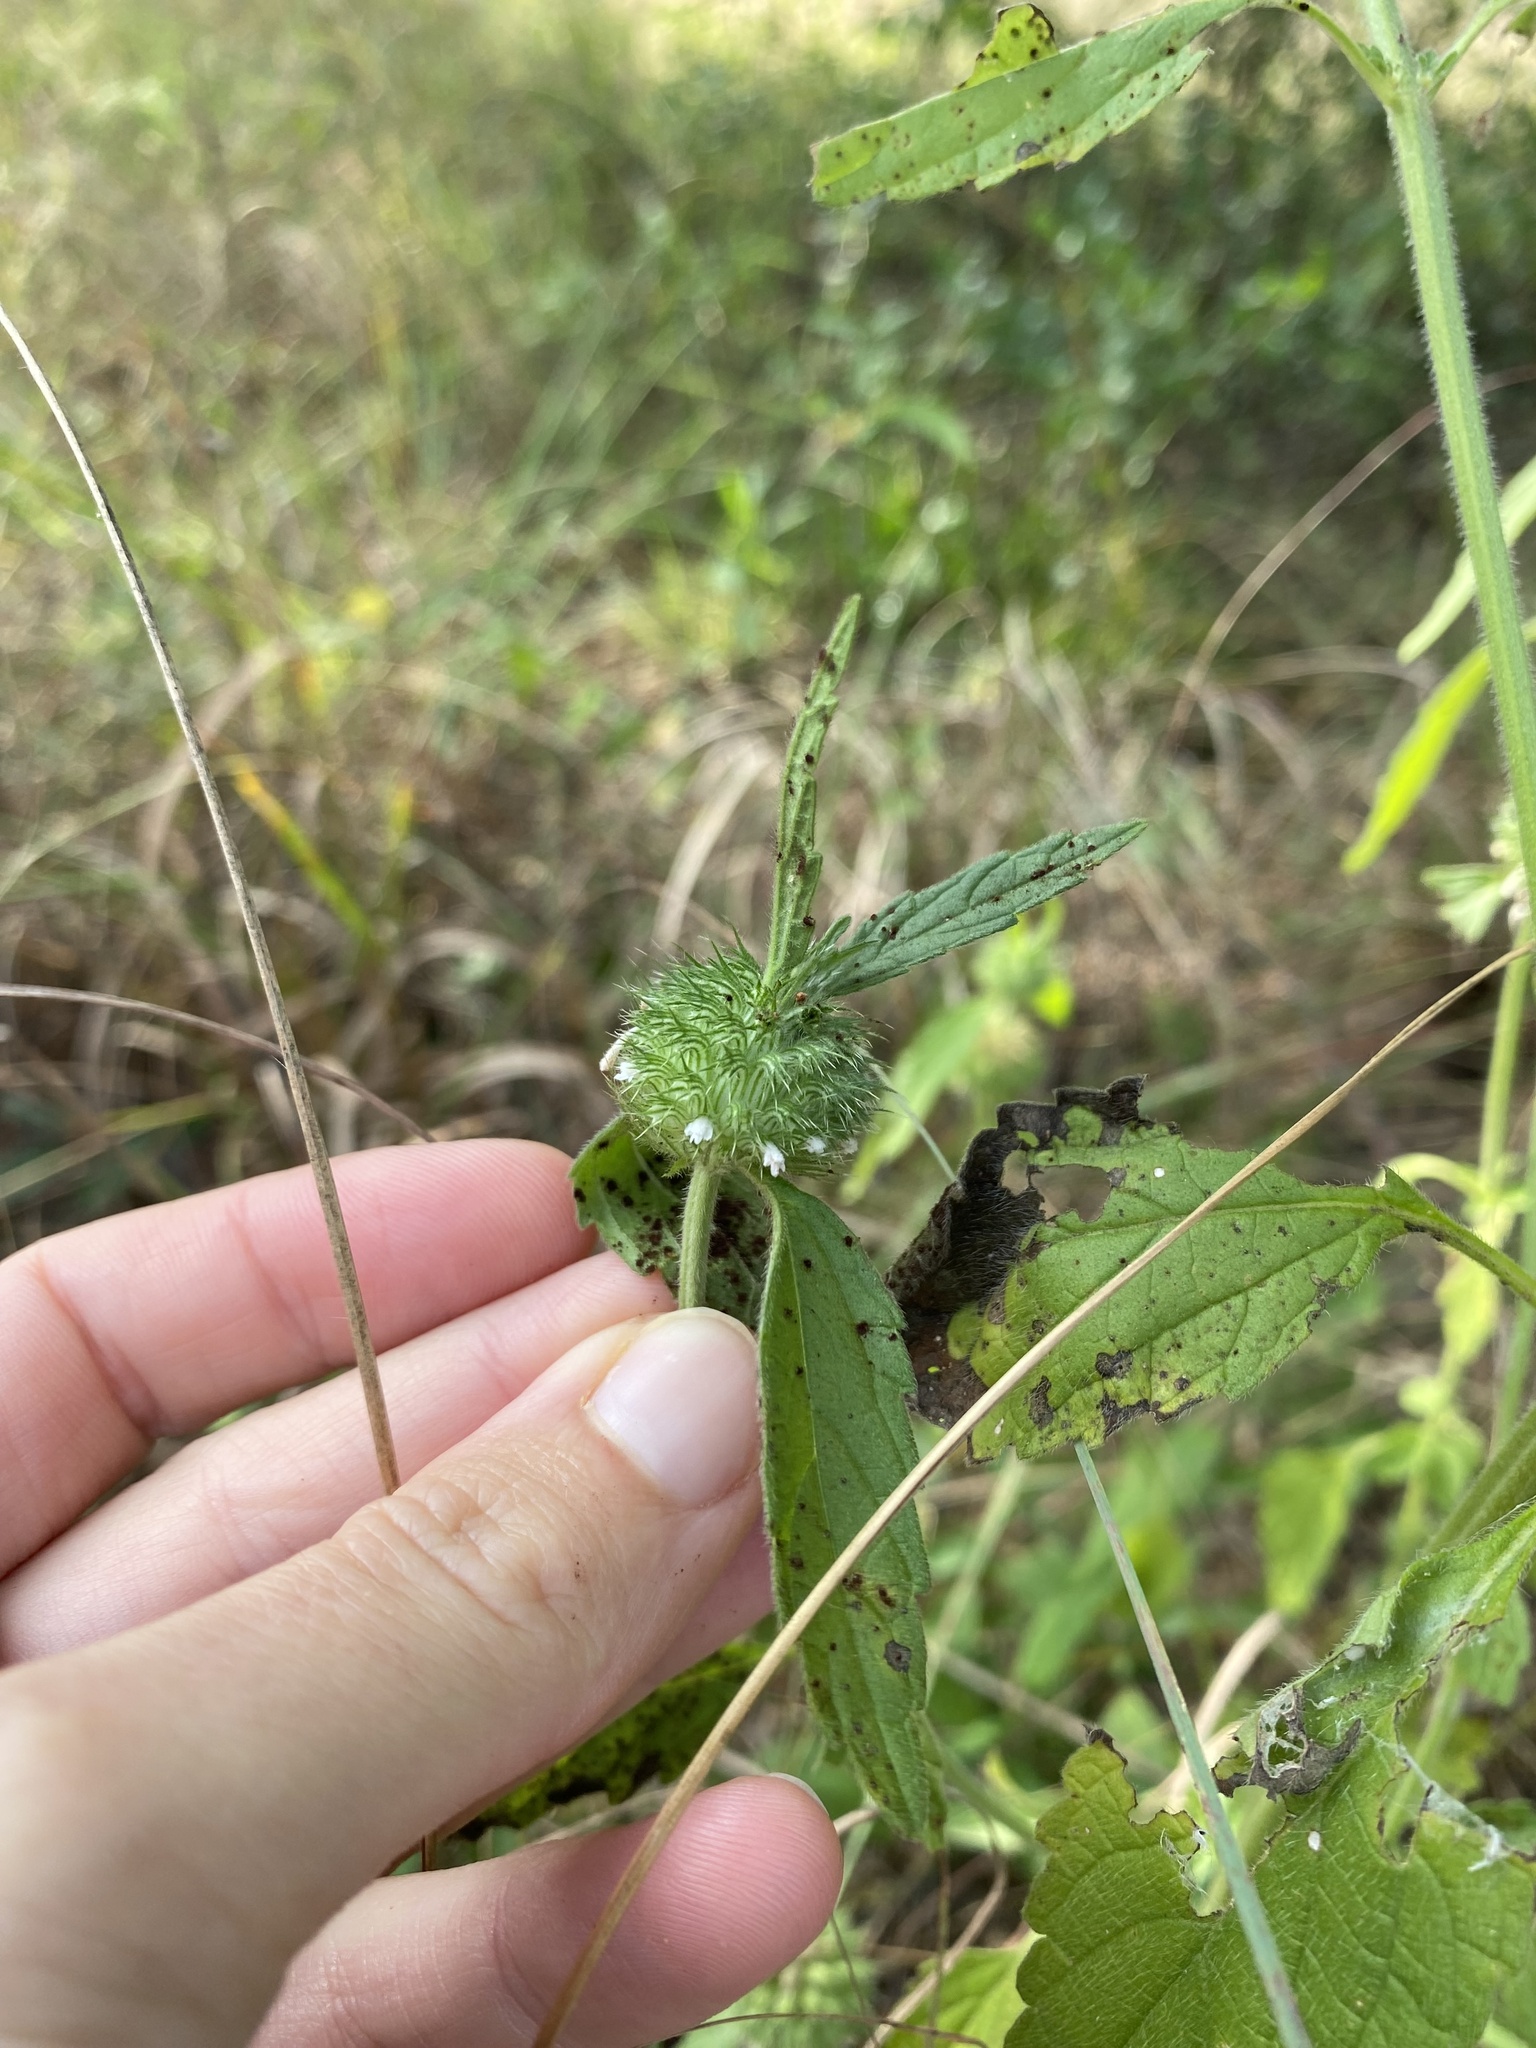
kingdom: Plantae
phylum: Tracheophyta
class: Magnoliopsida
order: Lamiales
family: Lamiaceae
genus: Leucas
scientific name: Leucas martinicensis
